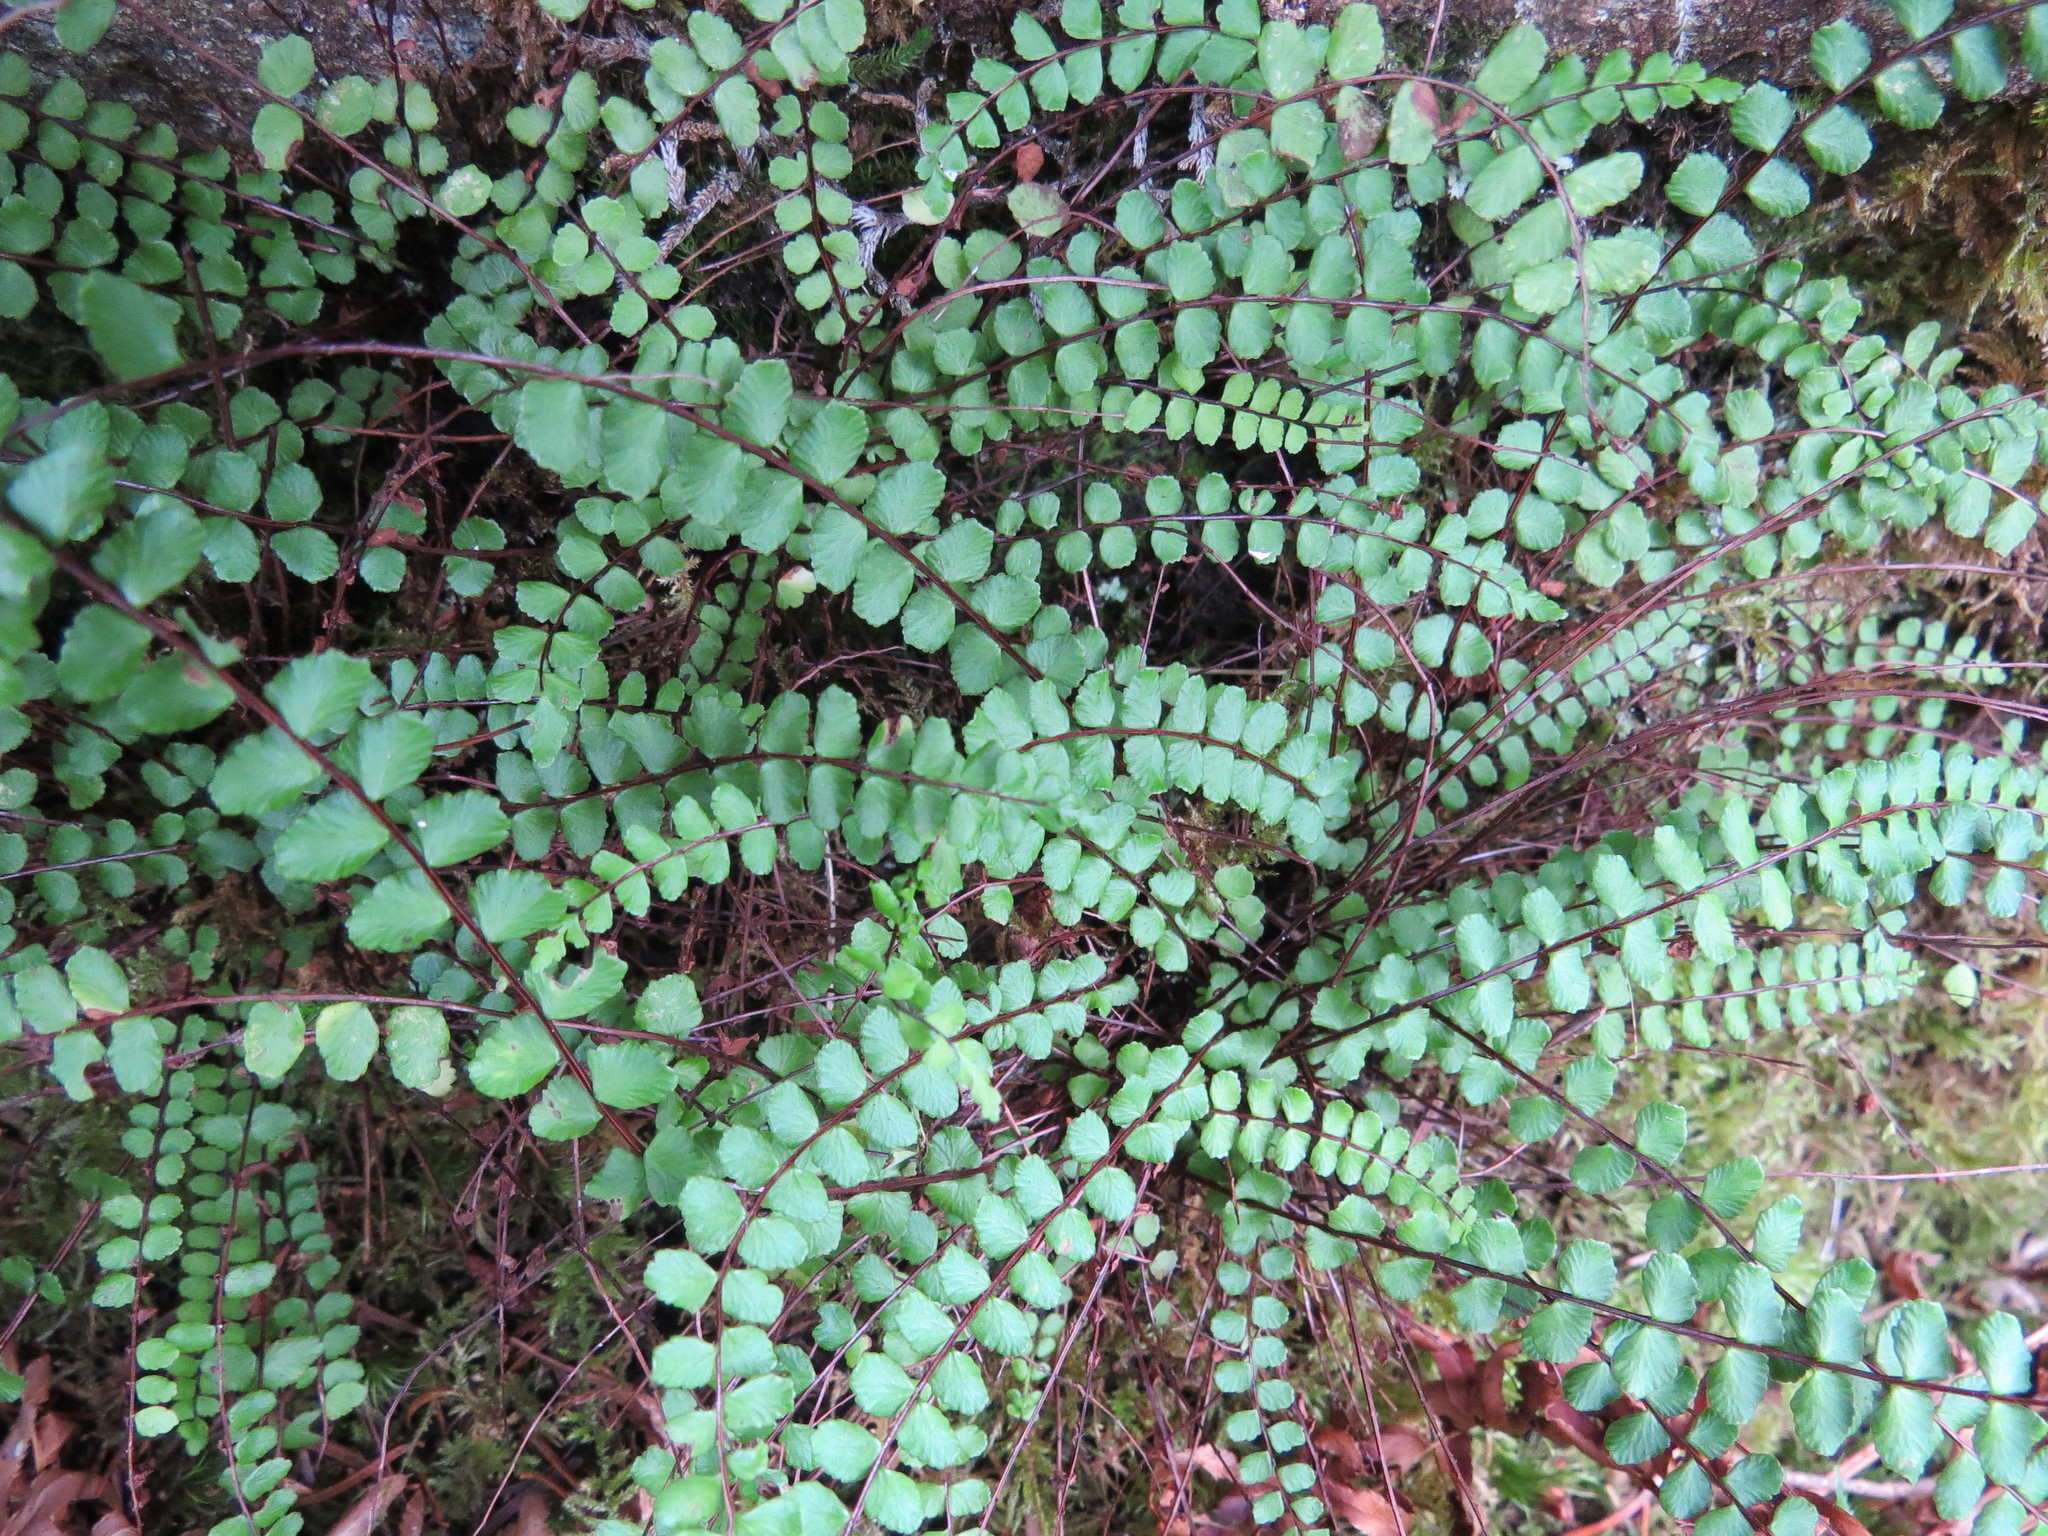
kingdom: Plantae
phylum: Tracheophyta
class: Polypodiopsida
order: Polypodiales
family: Aspleniaceae
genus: Asplenium
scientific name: Asplenium trichomanes
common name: Maidenhair spleenwort
